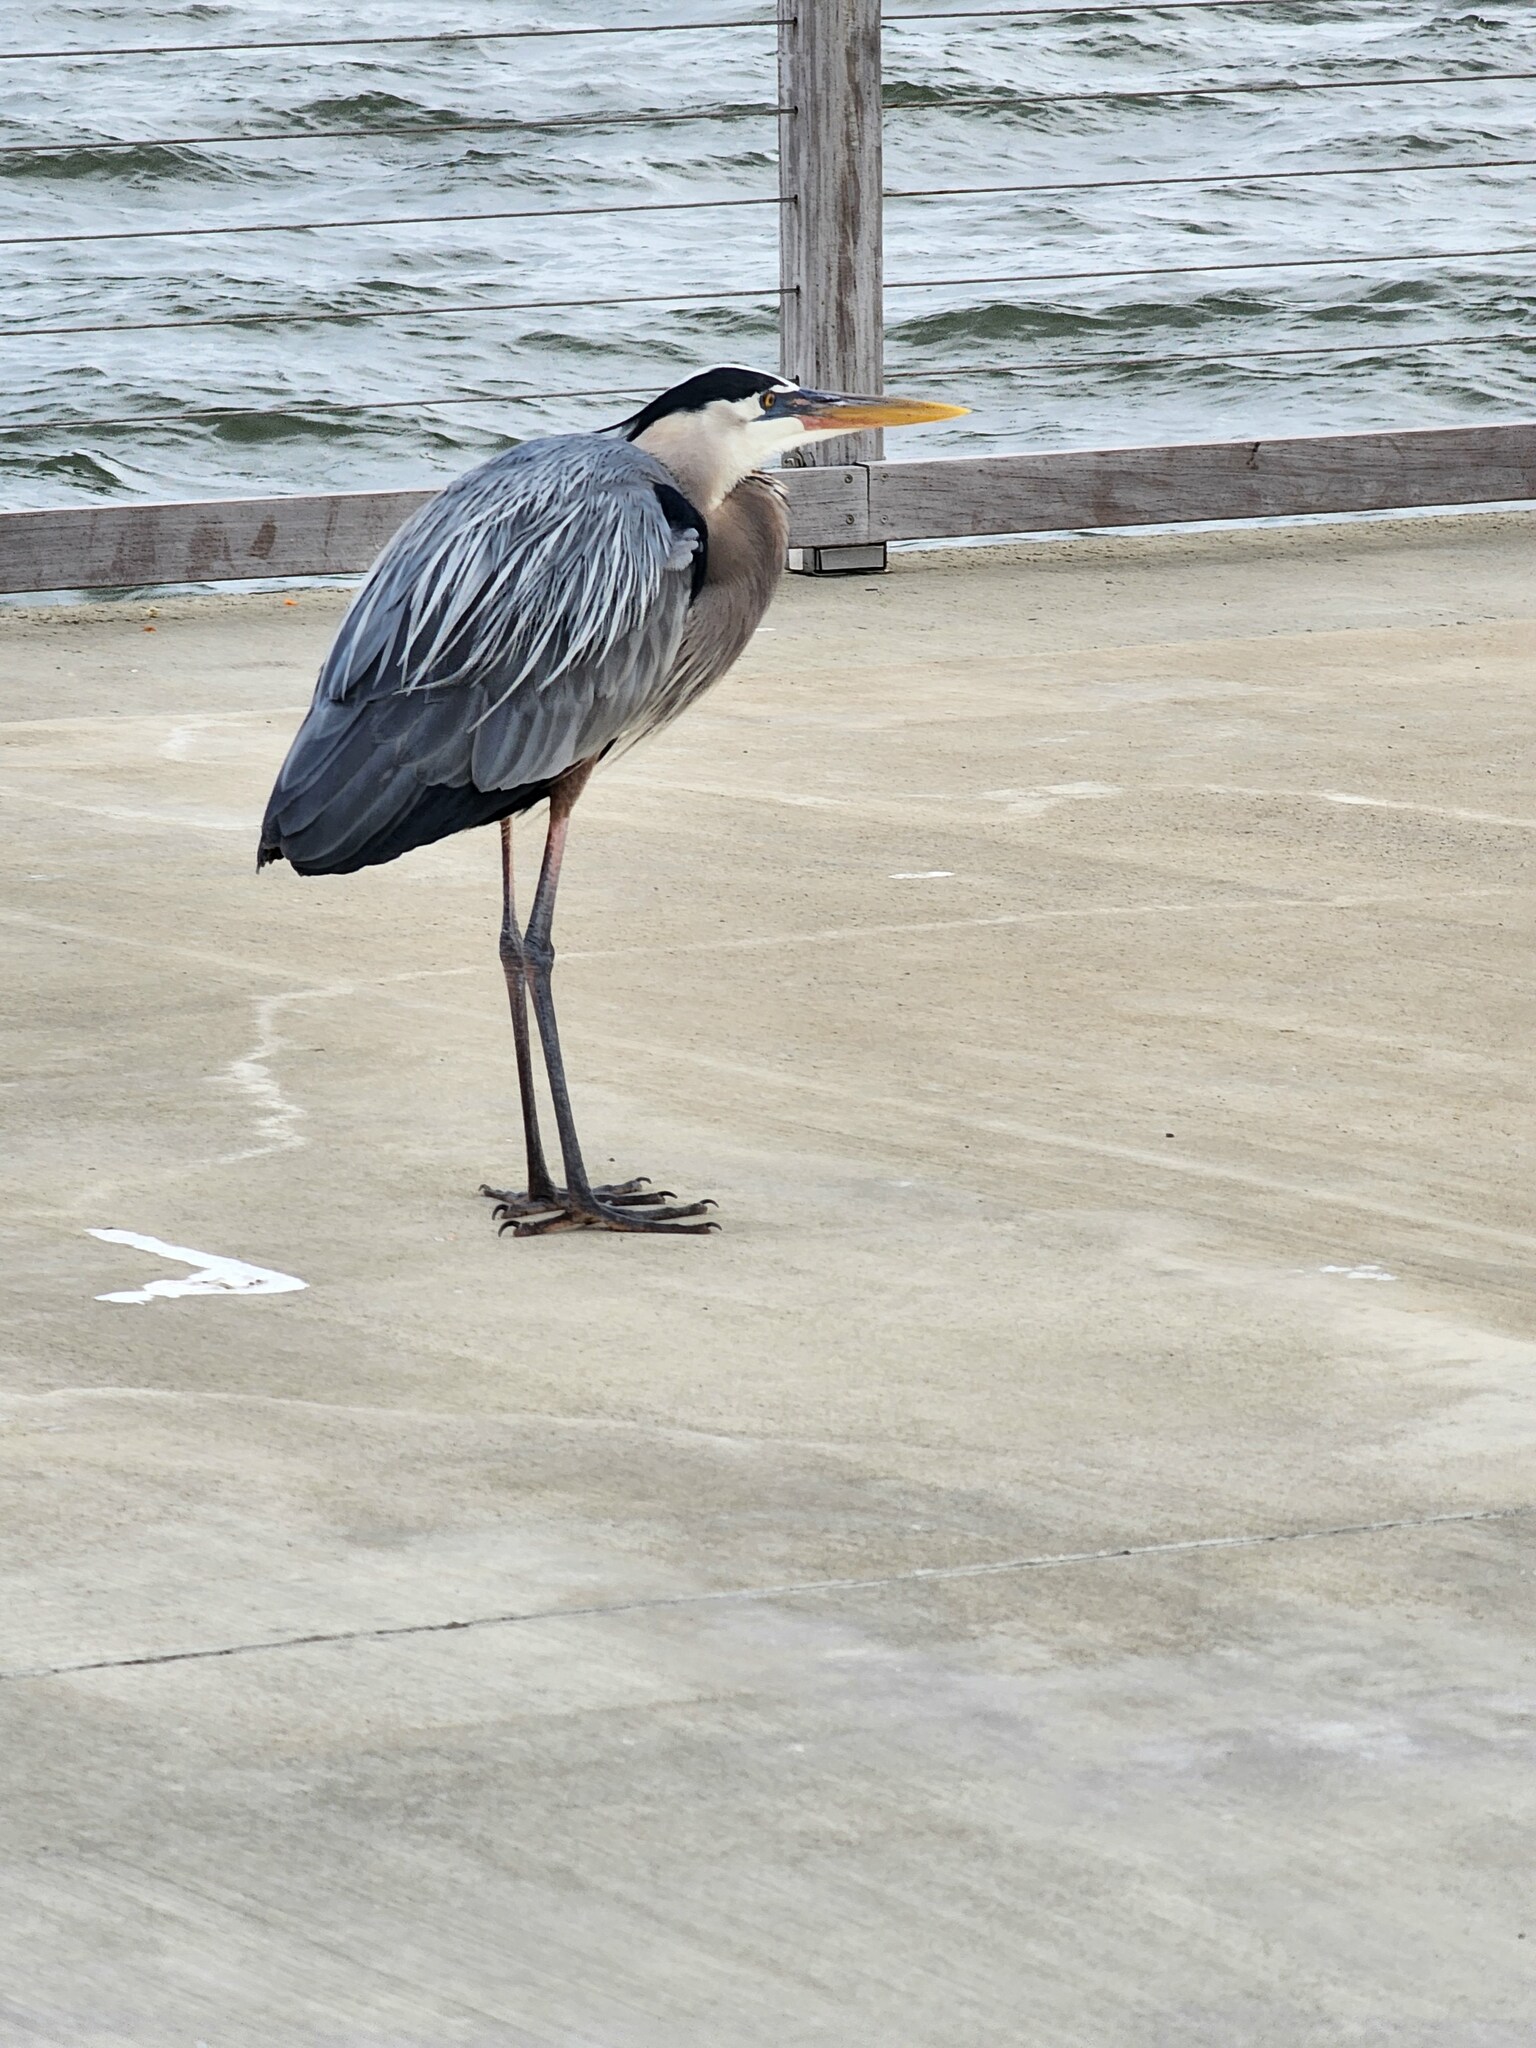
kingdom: Animalia
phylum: Chordata
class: Aves
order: Pelecaniformes
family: Ardeidae
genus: Ardea
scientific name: Ardea herodias
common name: Great blue heron
